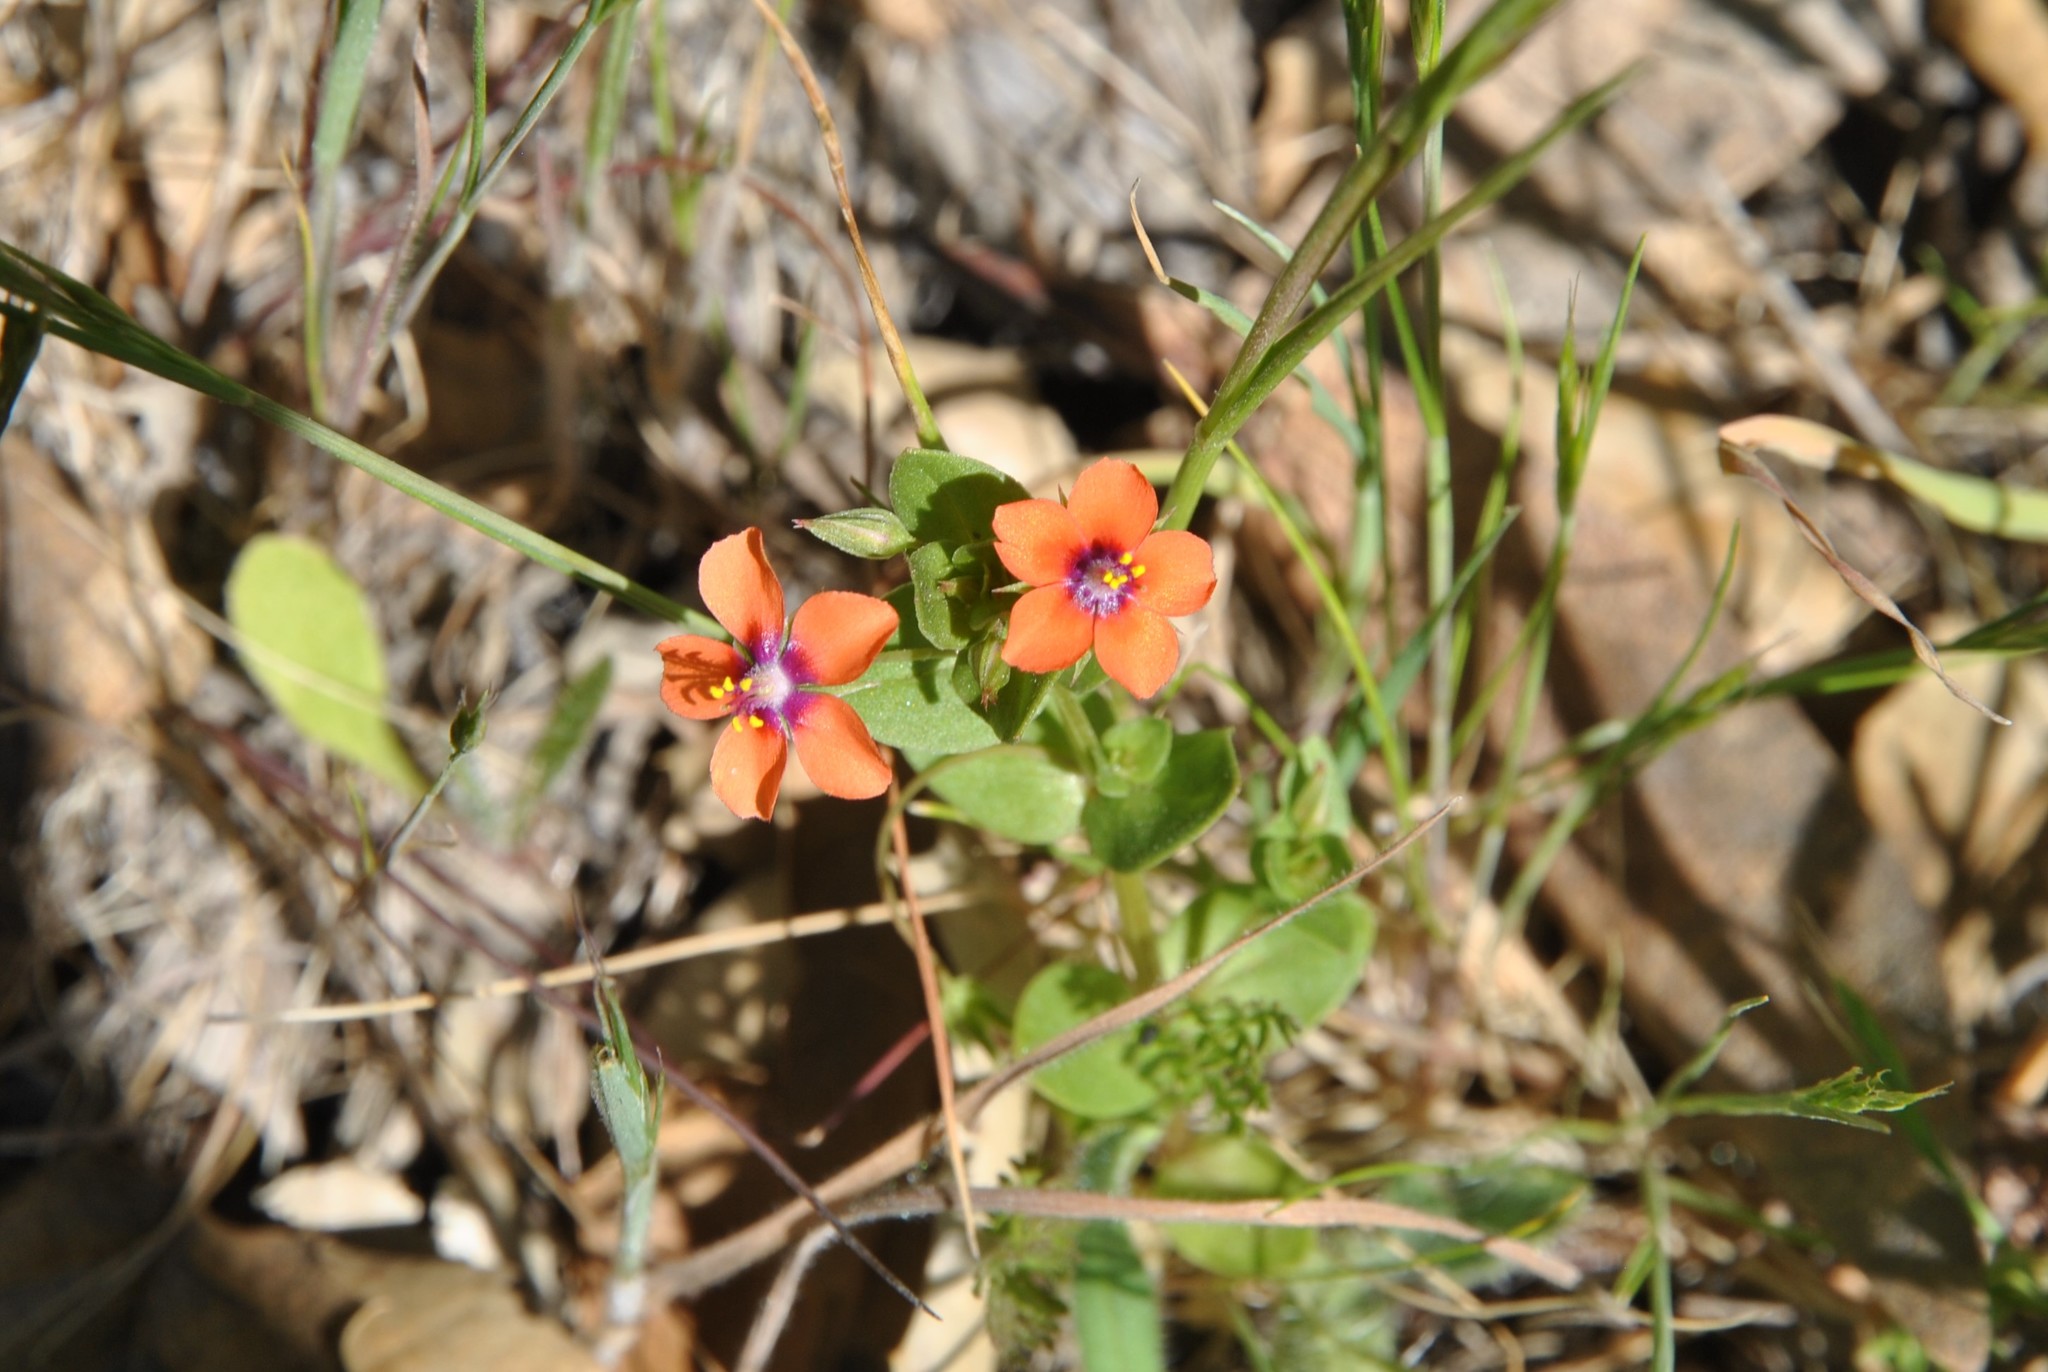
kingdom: Plantae
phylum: Tracheophyta
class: Magnoliopsida
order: Ericales
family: Primulaceae
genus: Lysimachia
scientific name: Lysimachia arvensis
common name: Scarlet pimpernel
